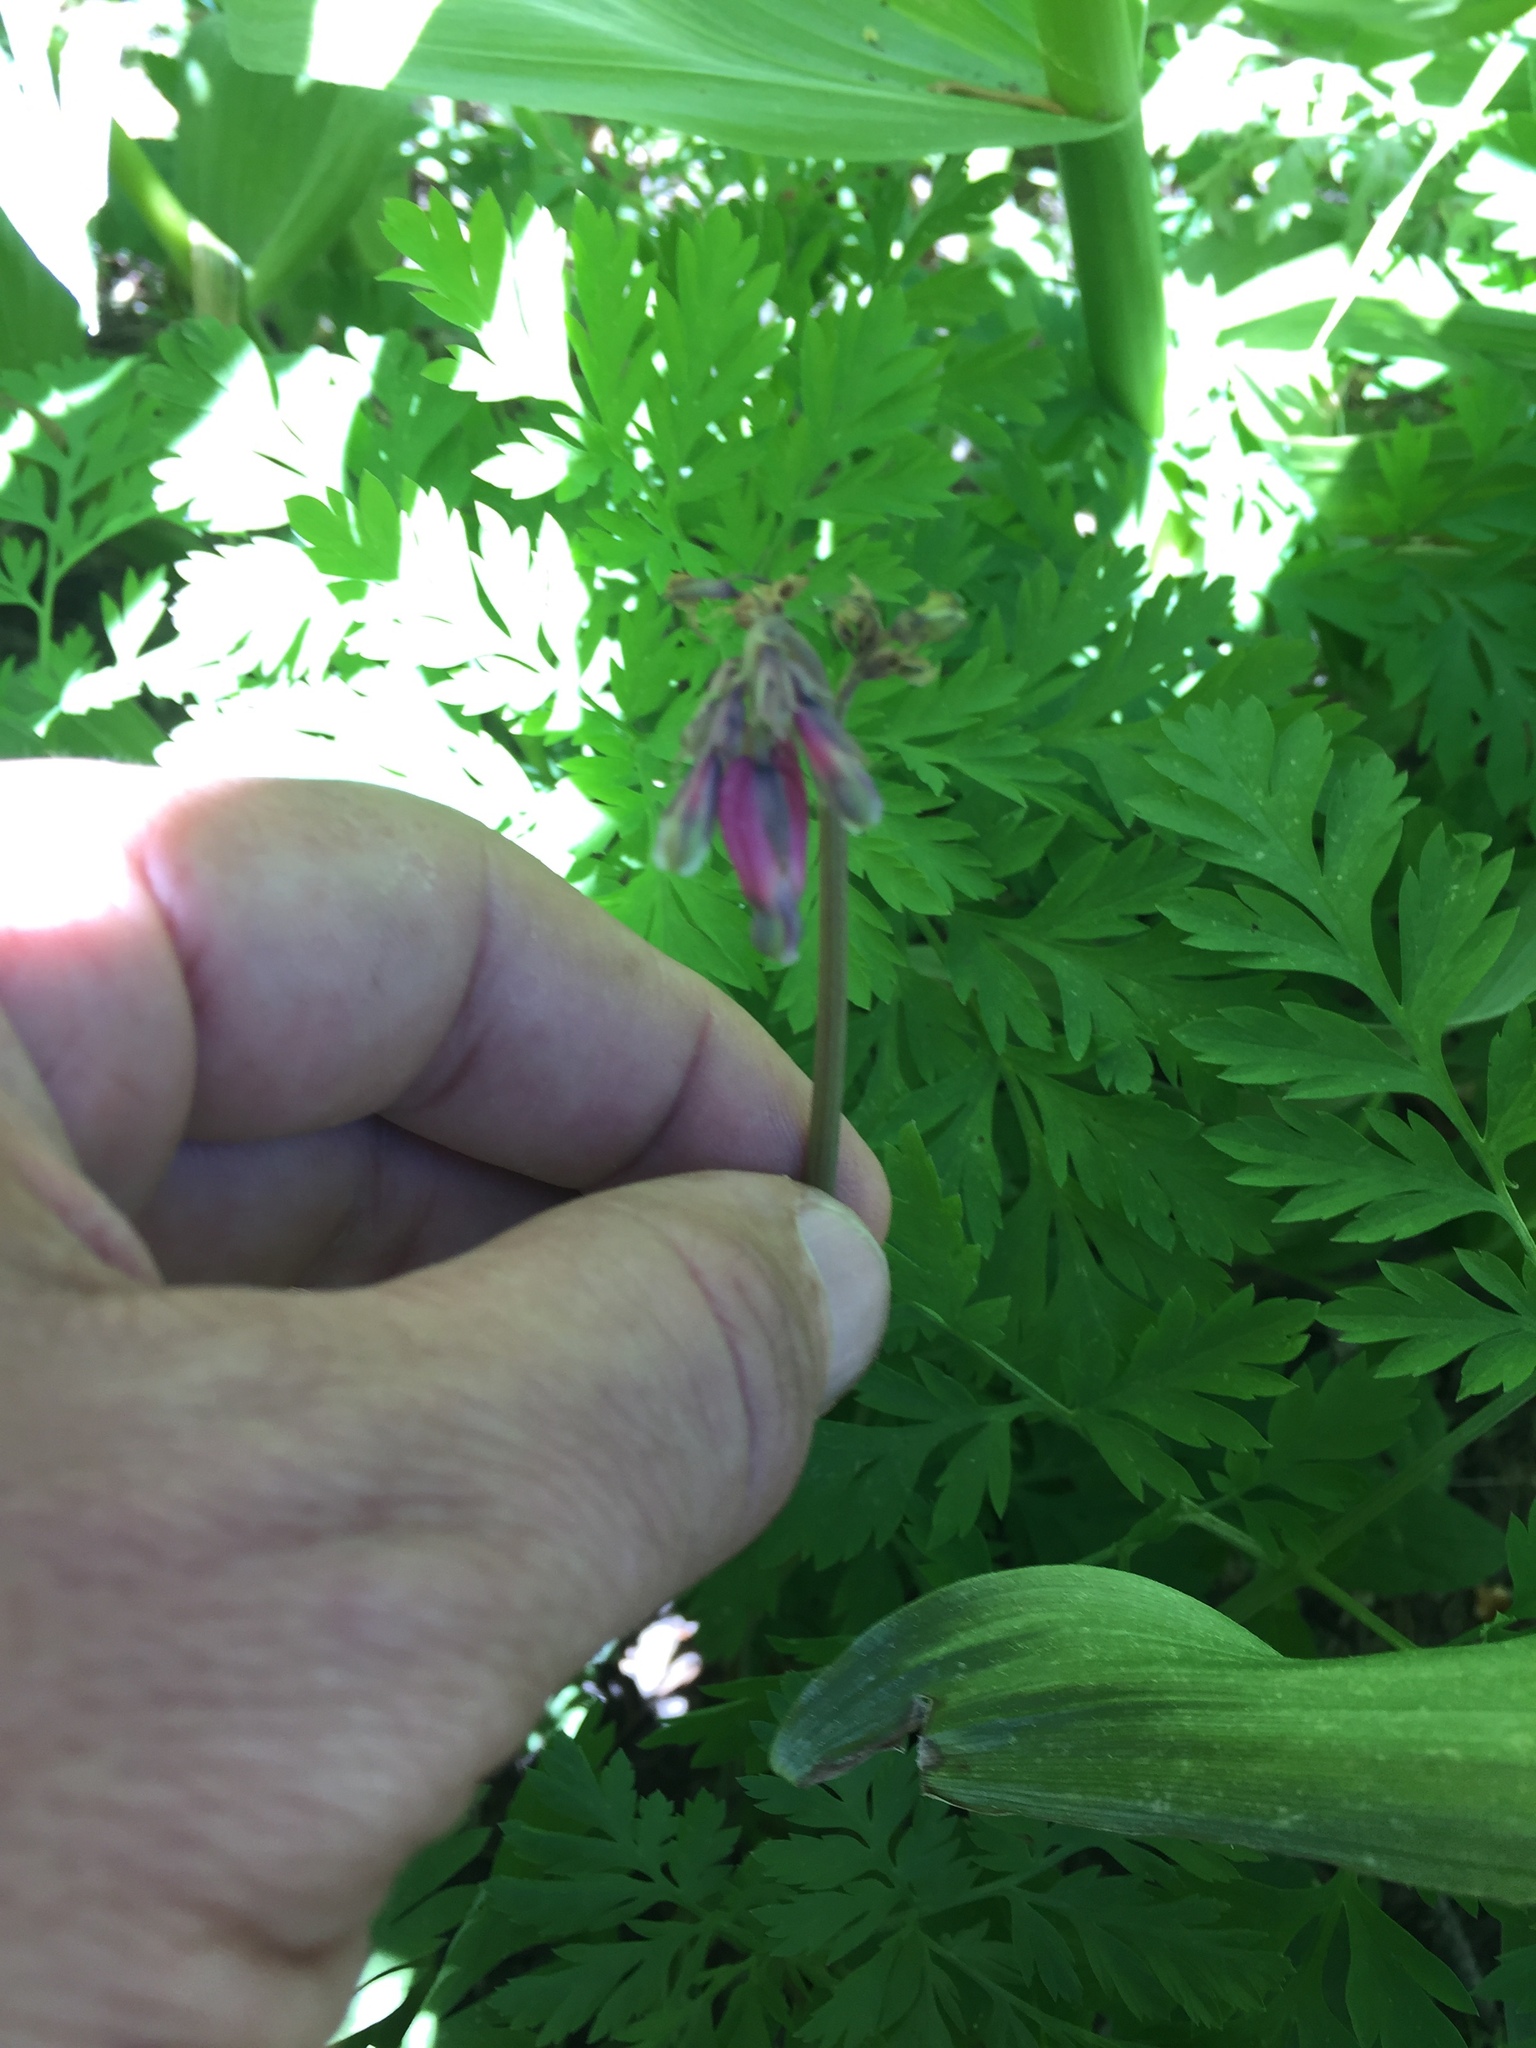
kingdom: Plantae
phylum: Tracheophyta
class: Magnoliopsida
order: Ranunculales
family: Papaveraceae
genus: Dicentra
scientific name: Dicentra formosa
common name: Bleeding-heart
